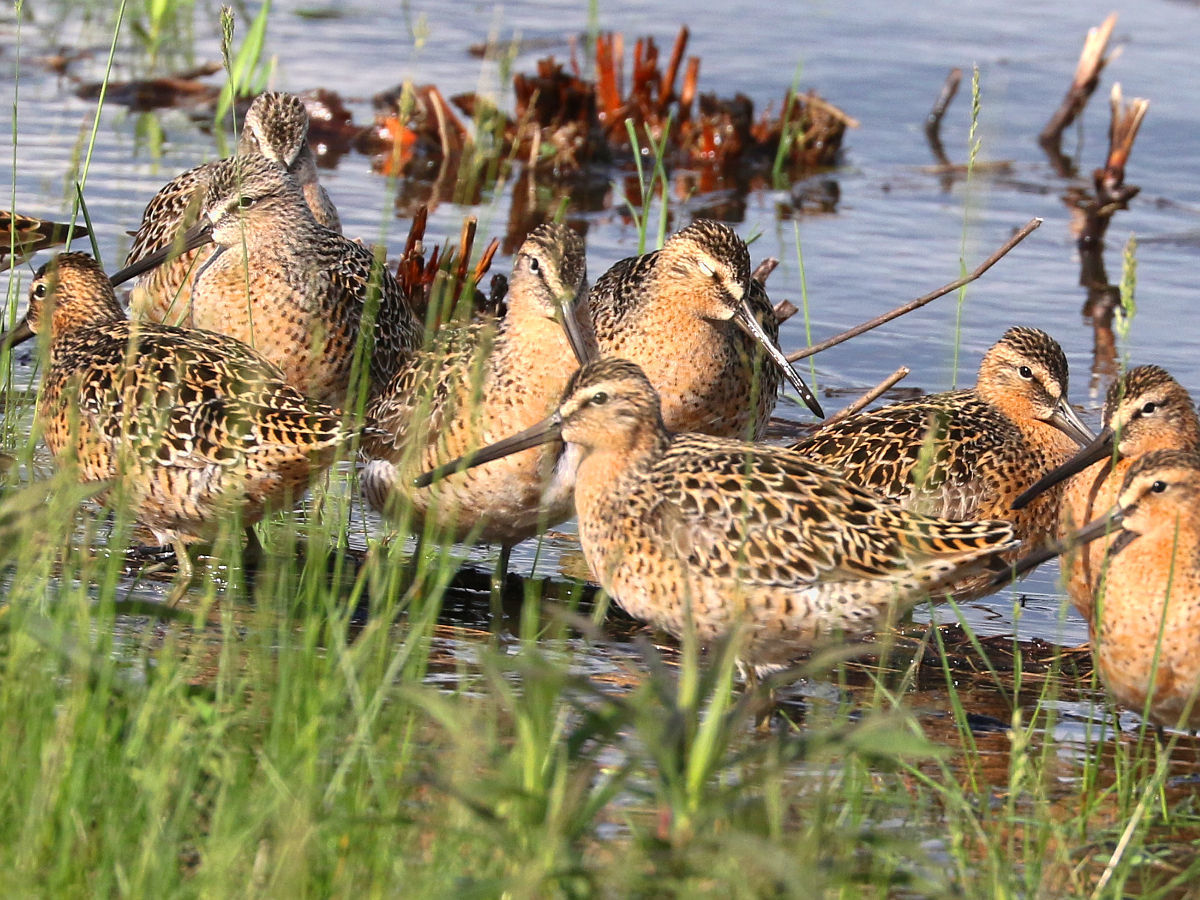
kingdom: Animalia
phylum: Chordata
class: Aves
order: Charadriiformes
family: Scolopacidae
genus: Limnodromus
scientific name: Limnodromus griseus
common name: Short-billed dowitcher
